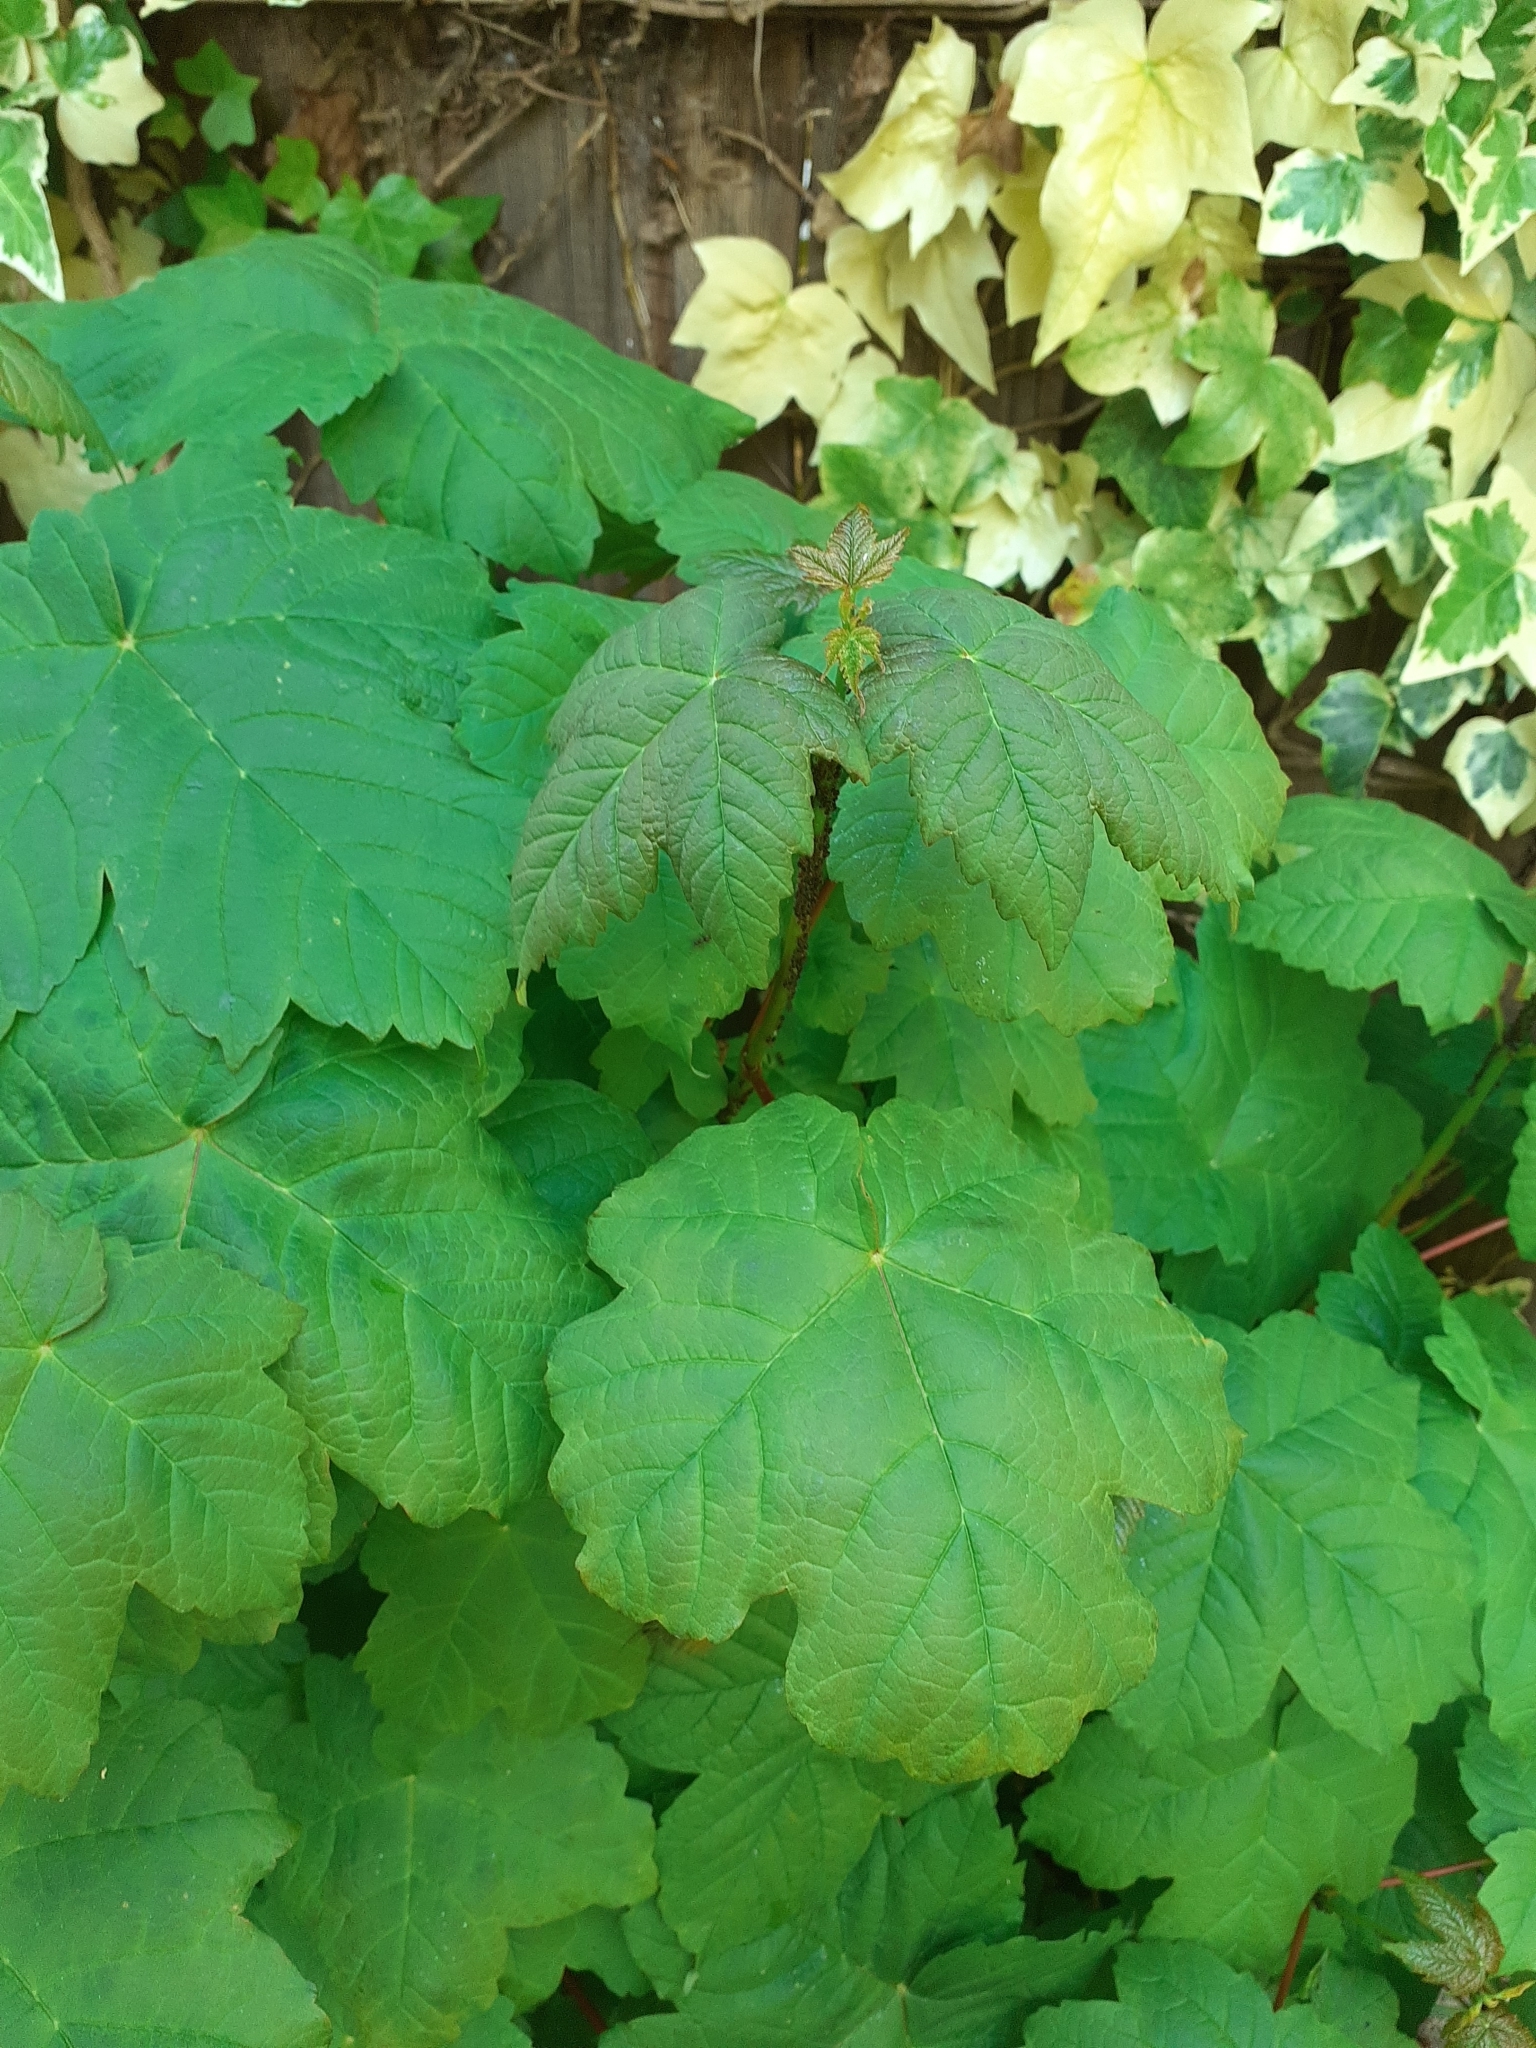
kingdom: Plantae
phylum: Tracheophyta
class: Magnoliopsida
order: Sapindales
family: Sapindaceae
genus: Acer
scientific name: Acer pseudoplatanus
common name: Sycamore
